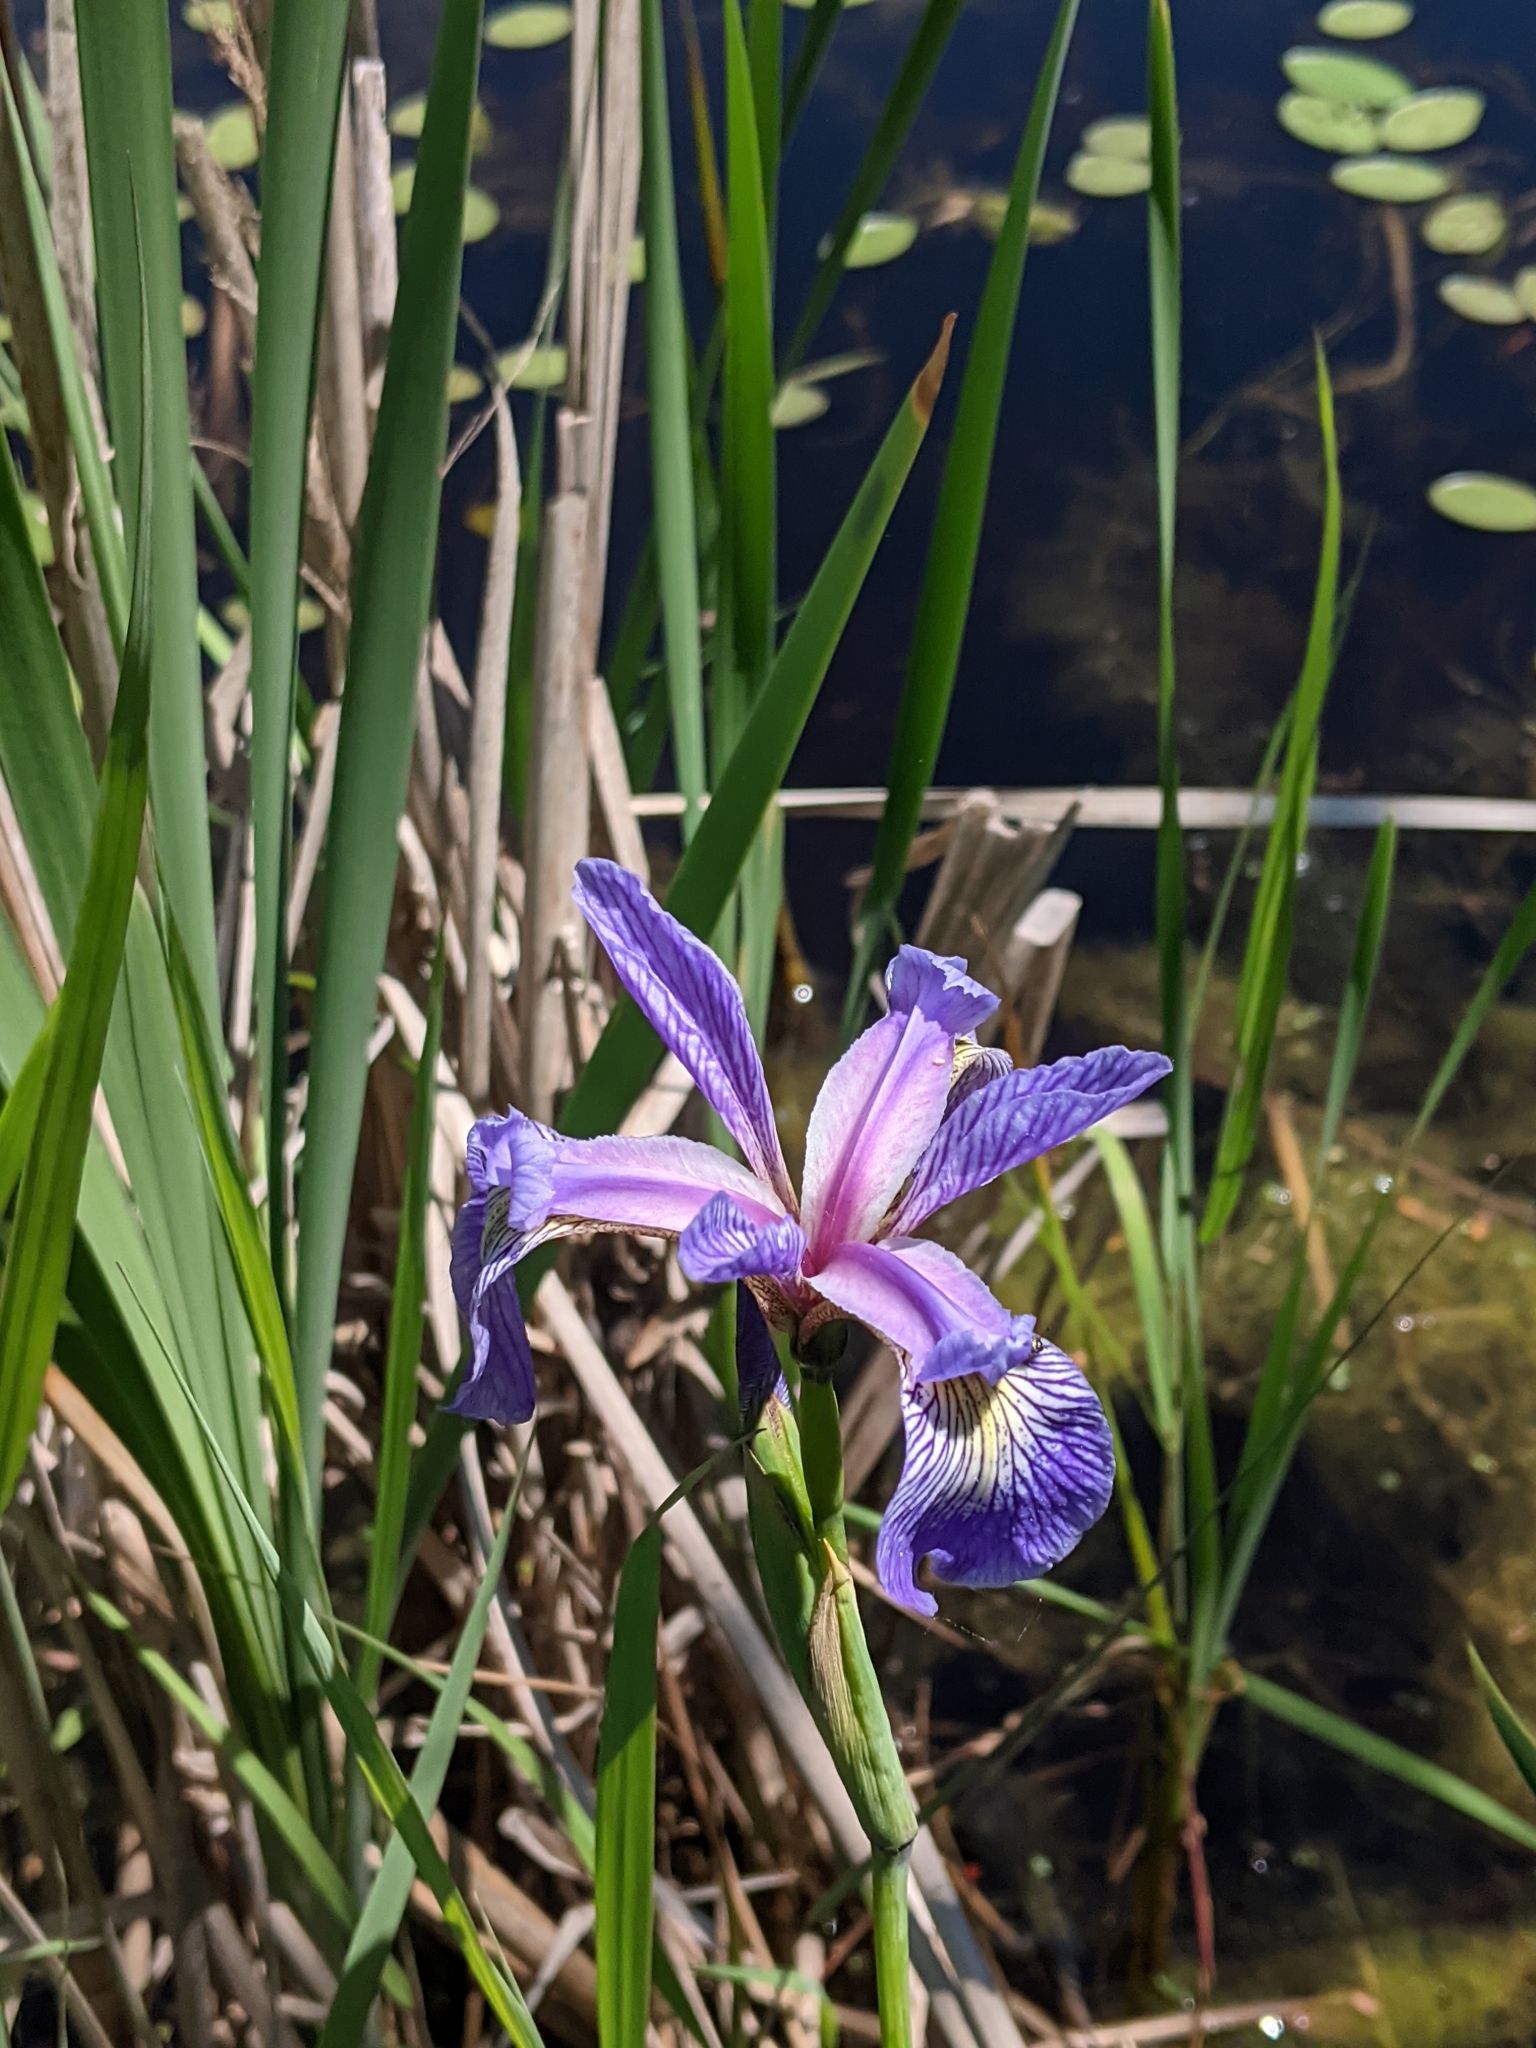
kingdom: Plantae
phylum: Tracheophyta
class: Liliopsida
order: Asparagales
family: Iridaceae
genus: Iris
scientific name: Iris versicolor
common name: Purple iris
